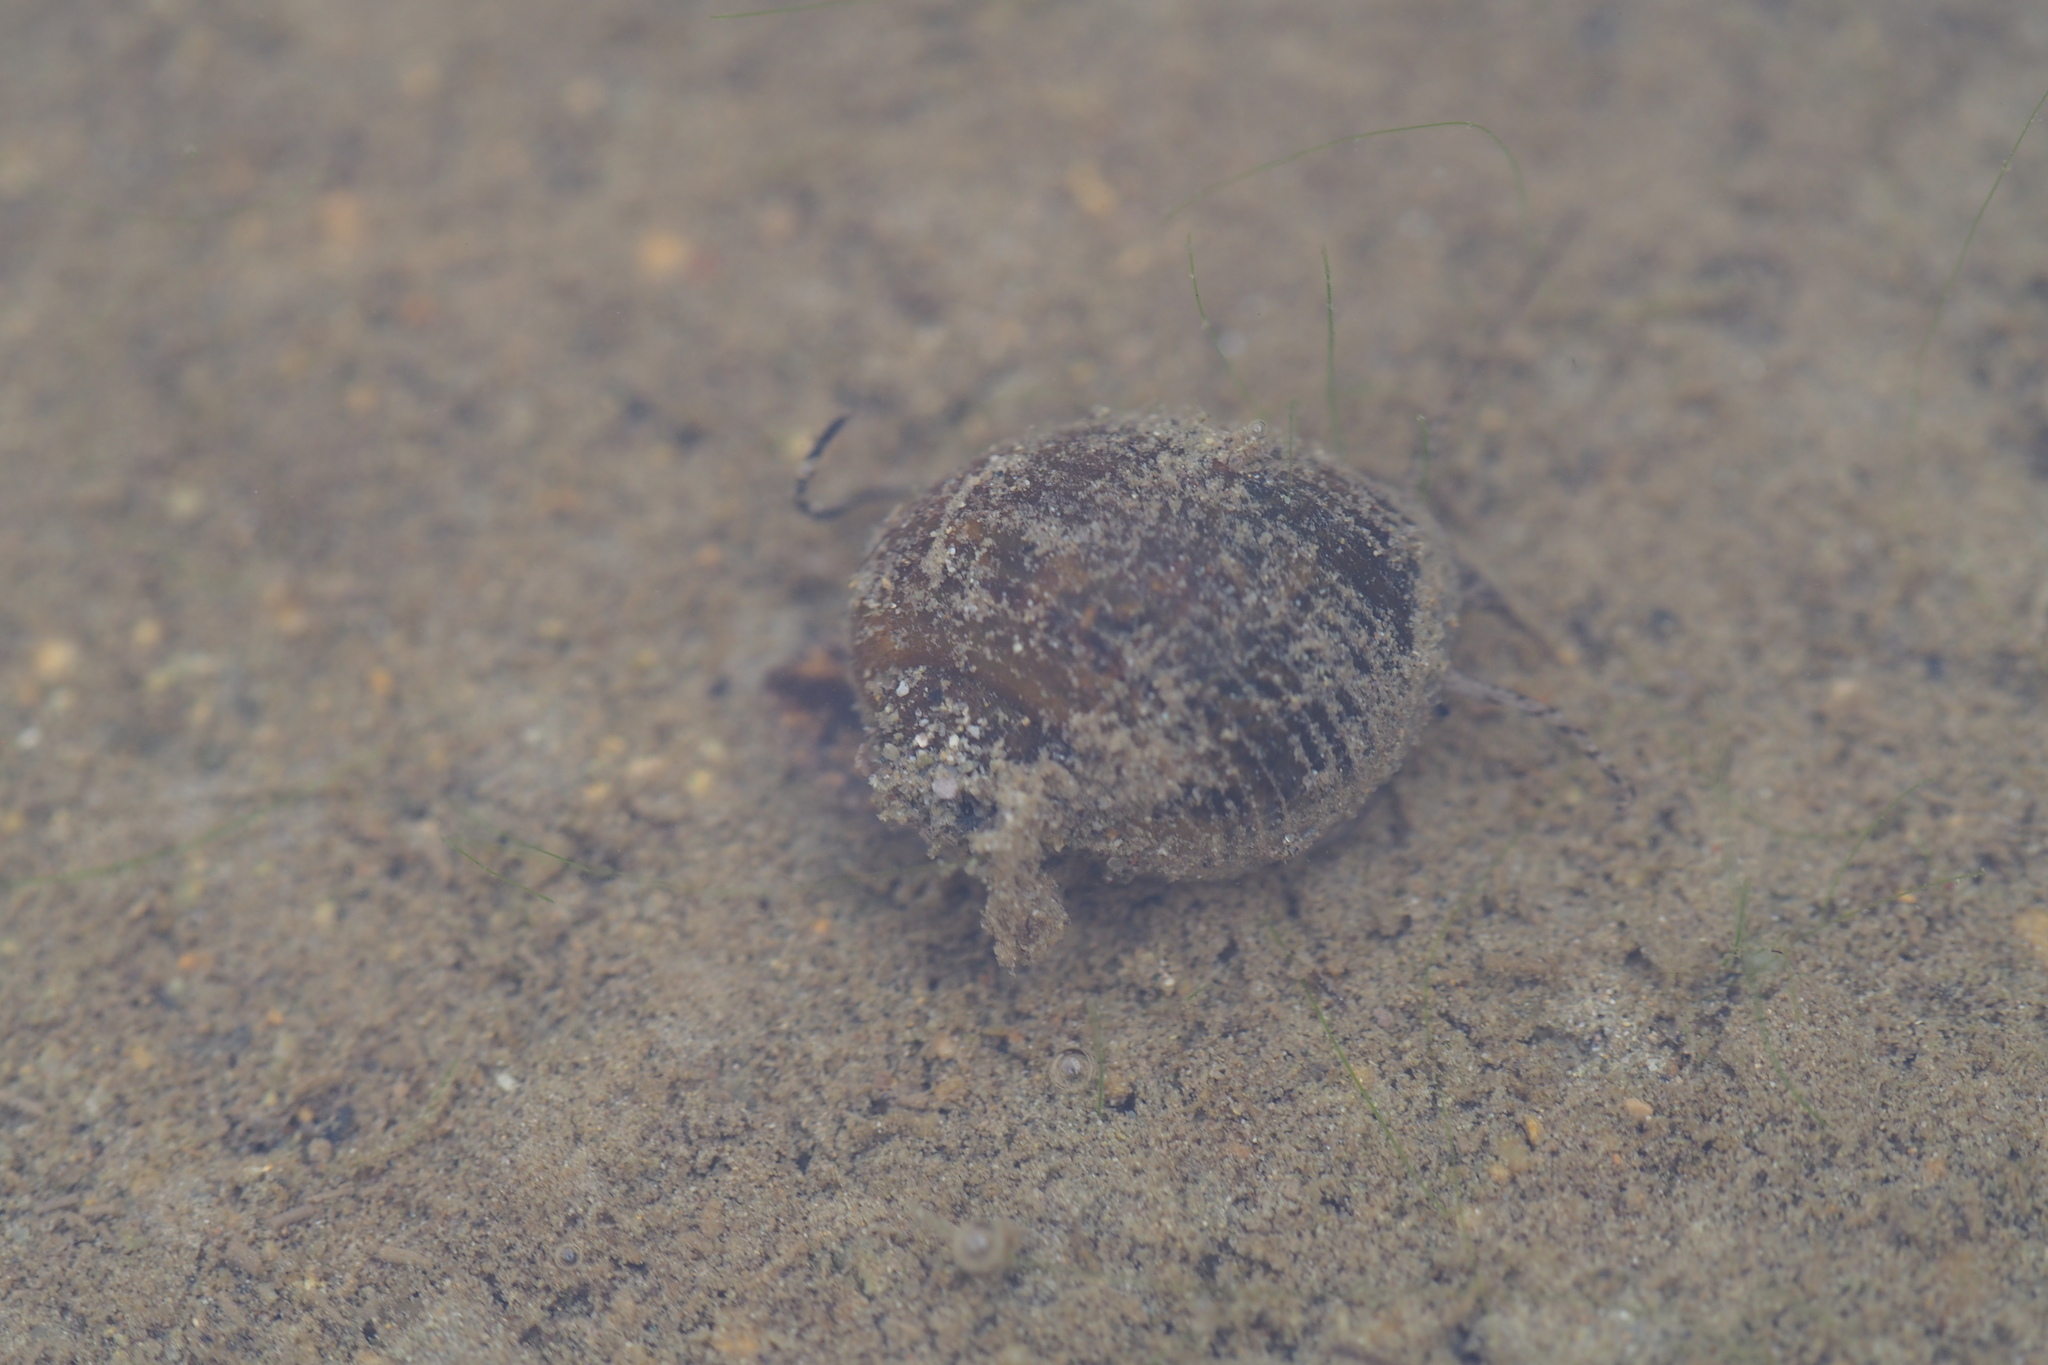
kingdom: Animalia
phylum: Mollusca
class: Gastropoda
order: Architaenioglossa
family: Ampullariidae
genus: Pomacea
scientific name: Pomacea canaliculata
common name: Channeled applesnail
